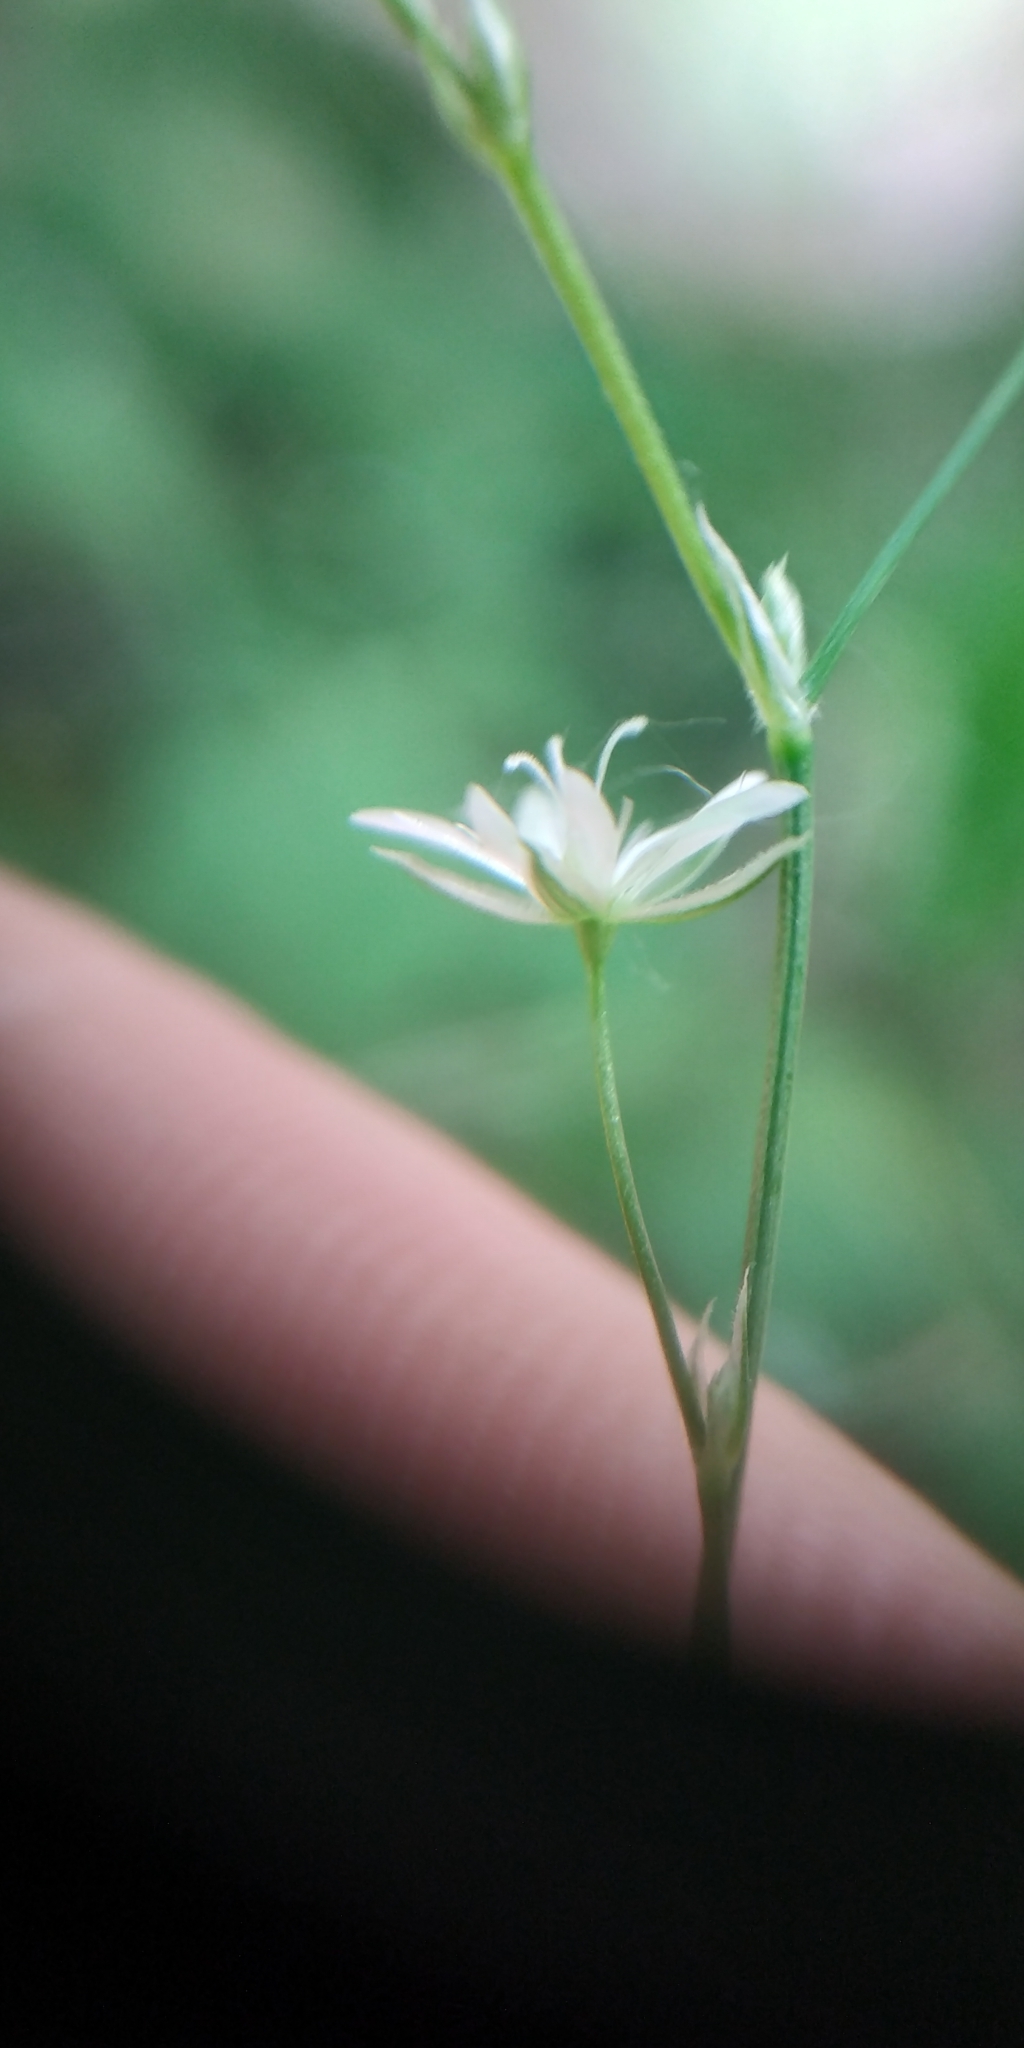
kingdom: Plantae
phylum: Tracheophyta
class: Magnoliopsida
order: Caryophyllales
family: Caryophyllaceae
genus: Stellaria
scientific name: Stellaria graminea
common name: Grass-like starwort
